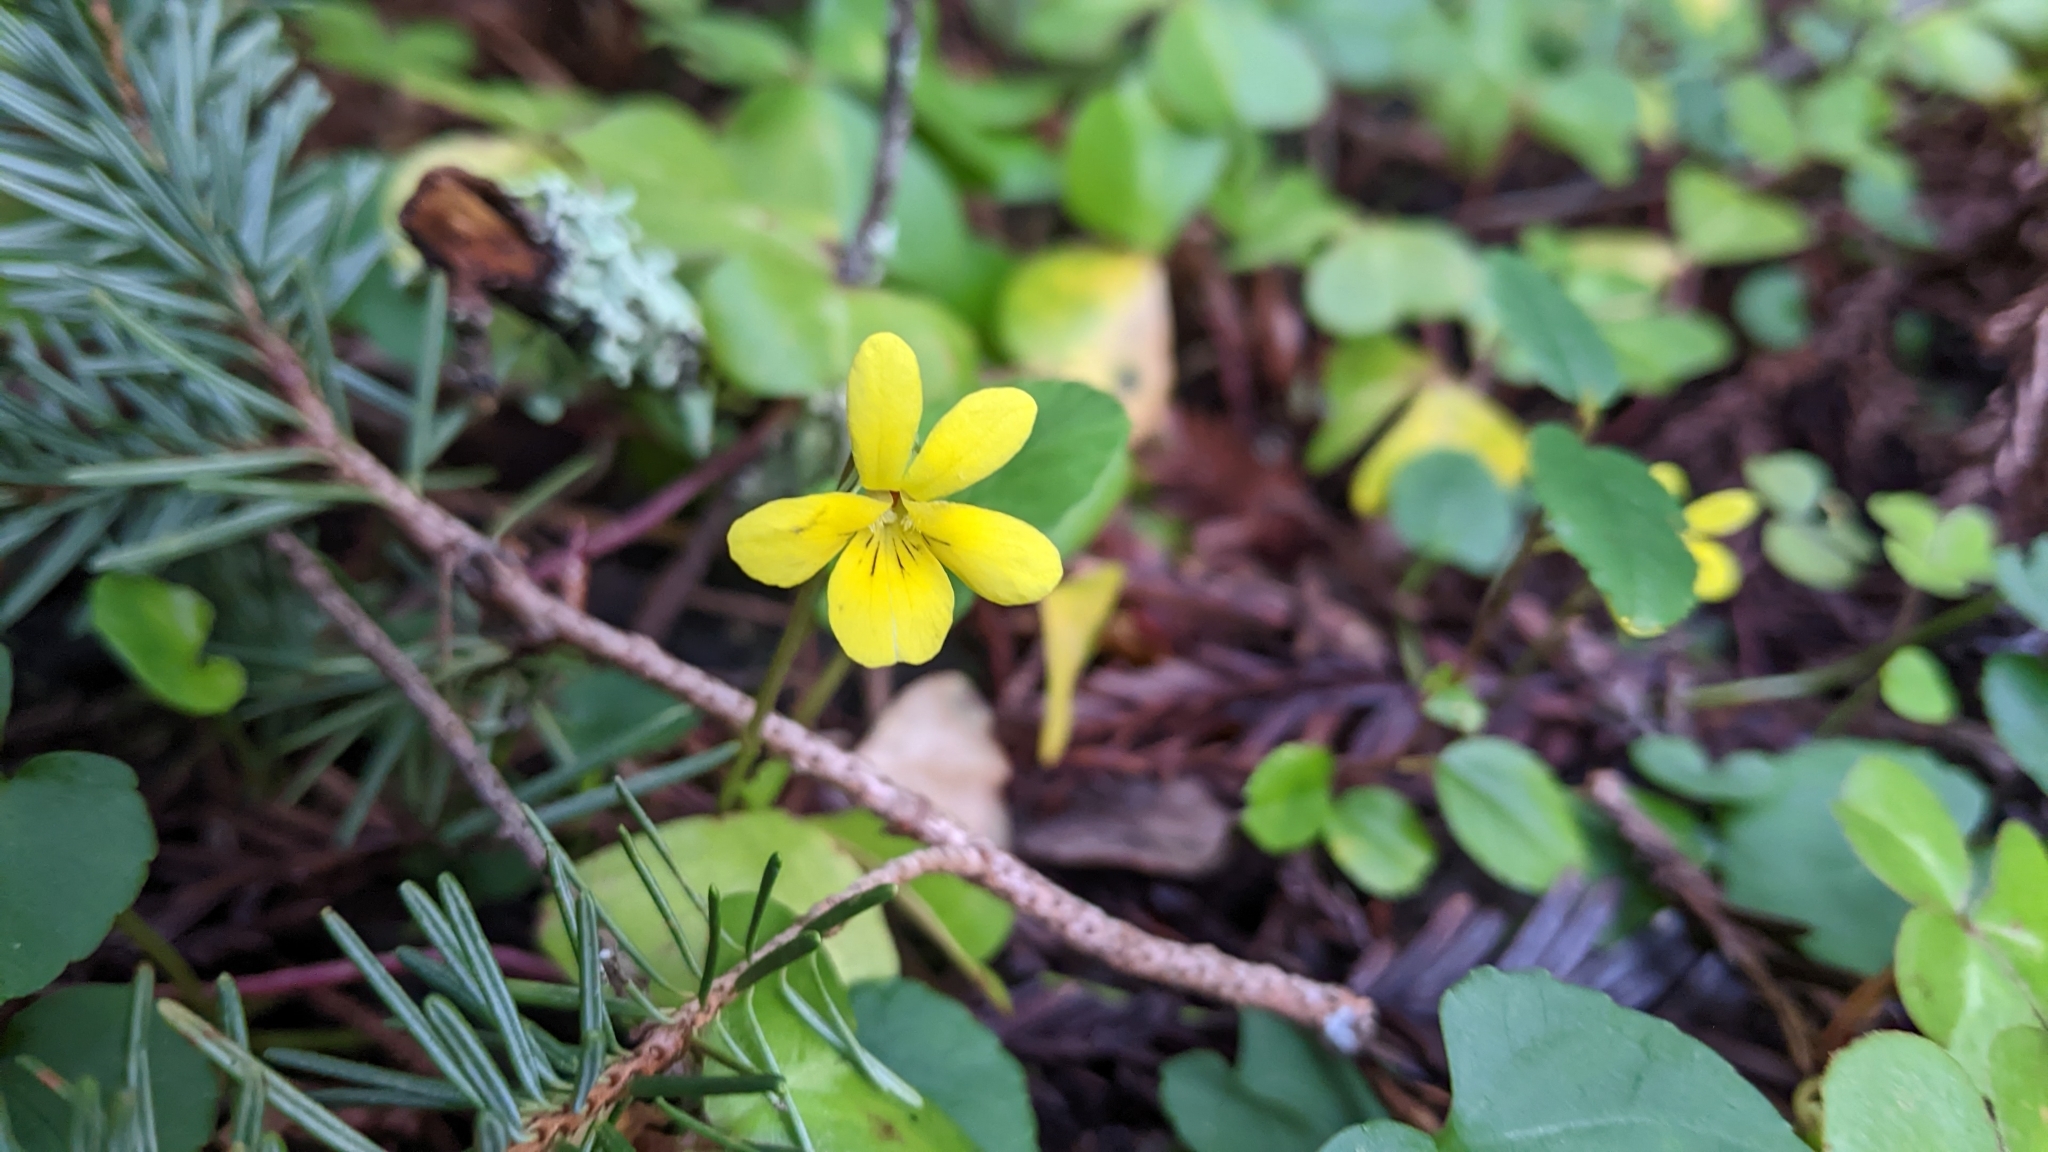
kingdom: Plantae
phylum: Tracheophyta
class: Magnoliopsida
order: Malpighiales
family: Violaceae
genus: Viola
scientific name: Viola sempervirens
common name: Evergreen violet
